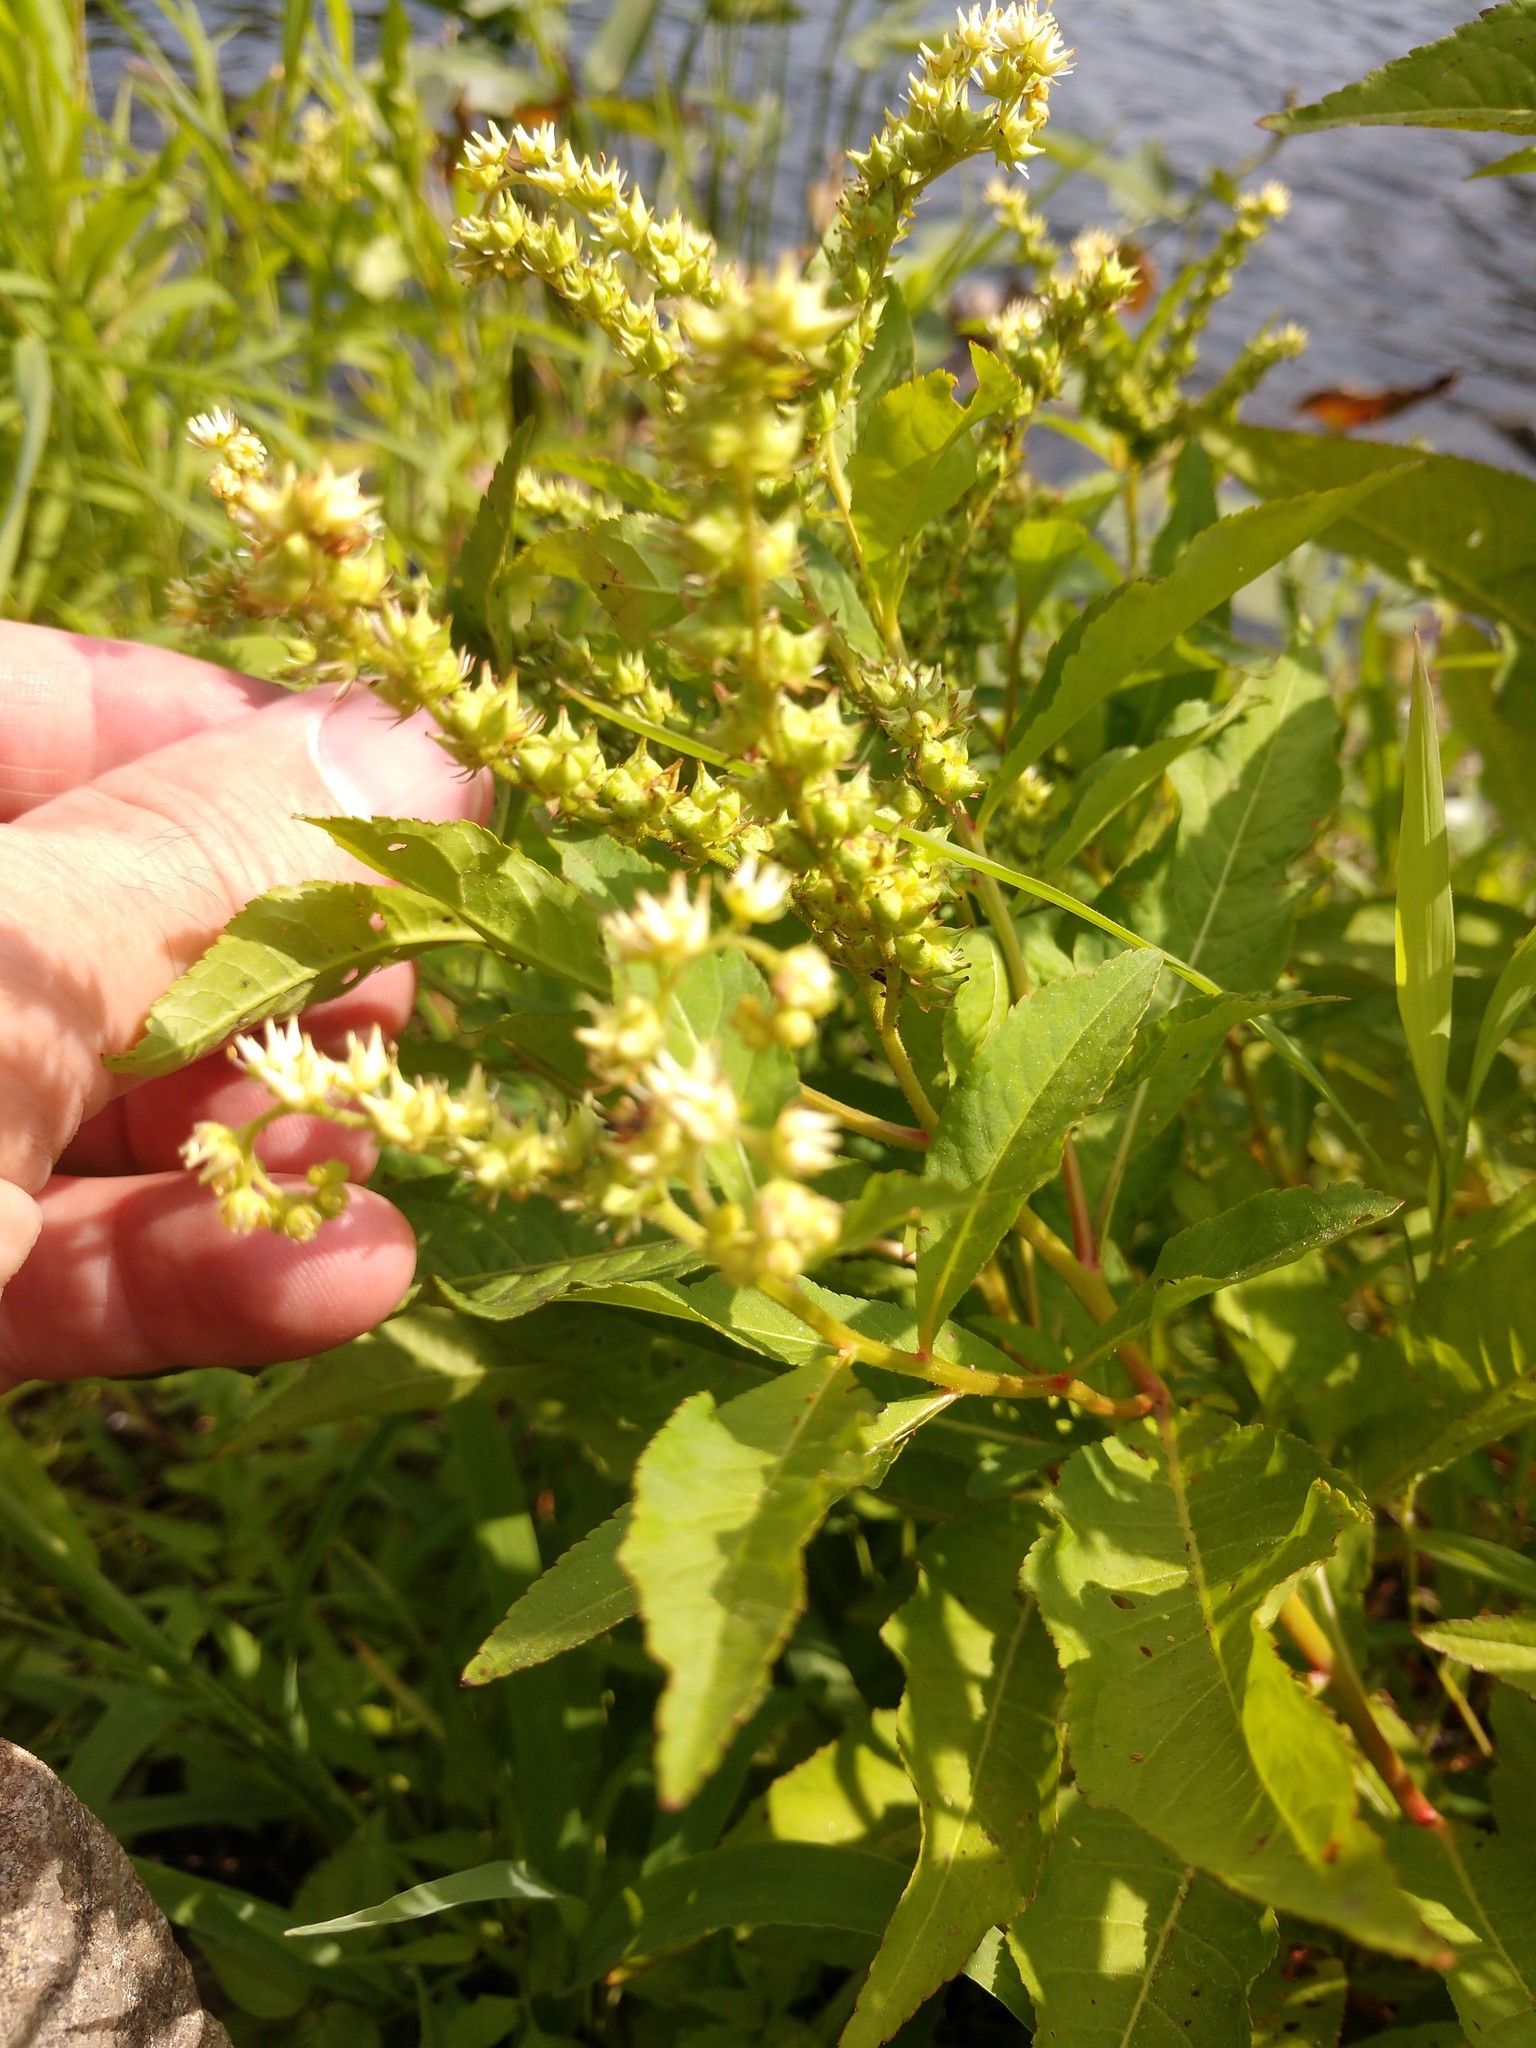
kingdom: Plantae
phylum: Tracheophyta
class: Magnoliopsida
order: Saxifragales
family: Penthoraceae
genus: Penthorum
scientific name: Penthorum sedoides
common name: Ditch stonecrop
